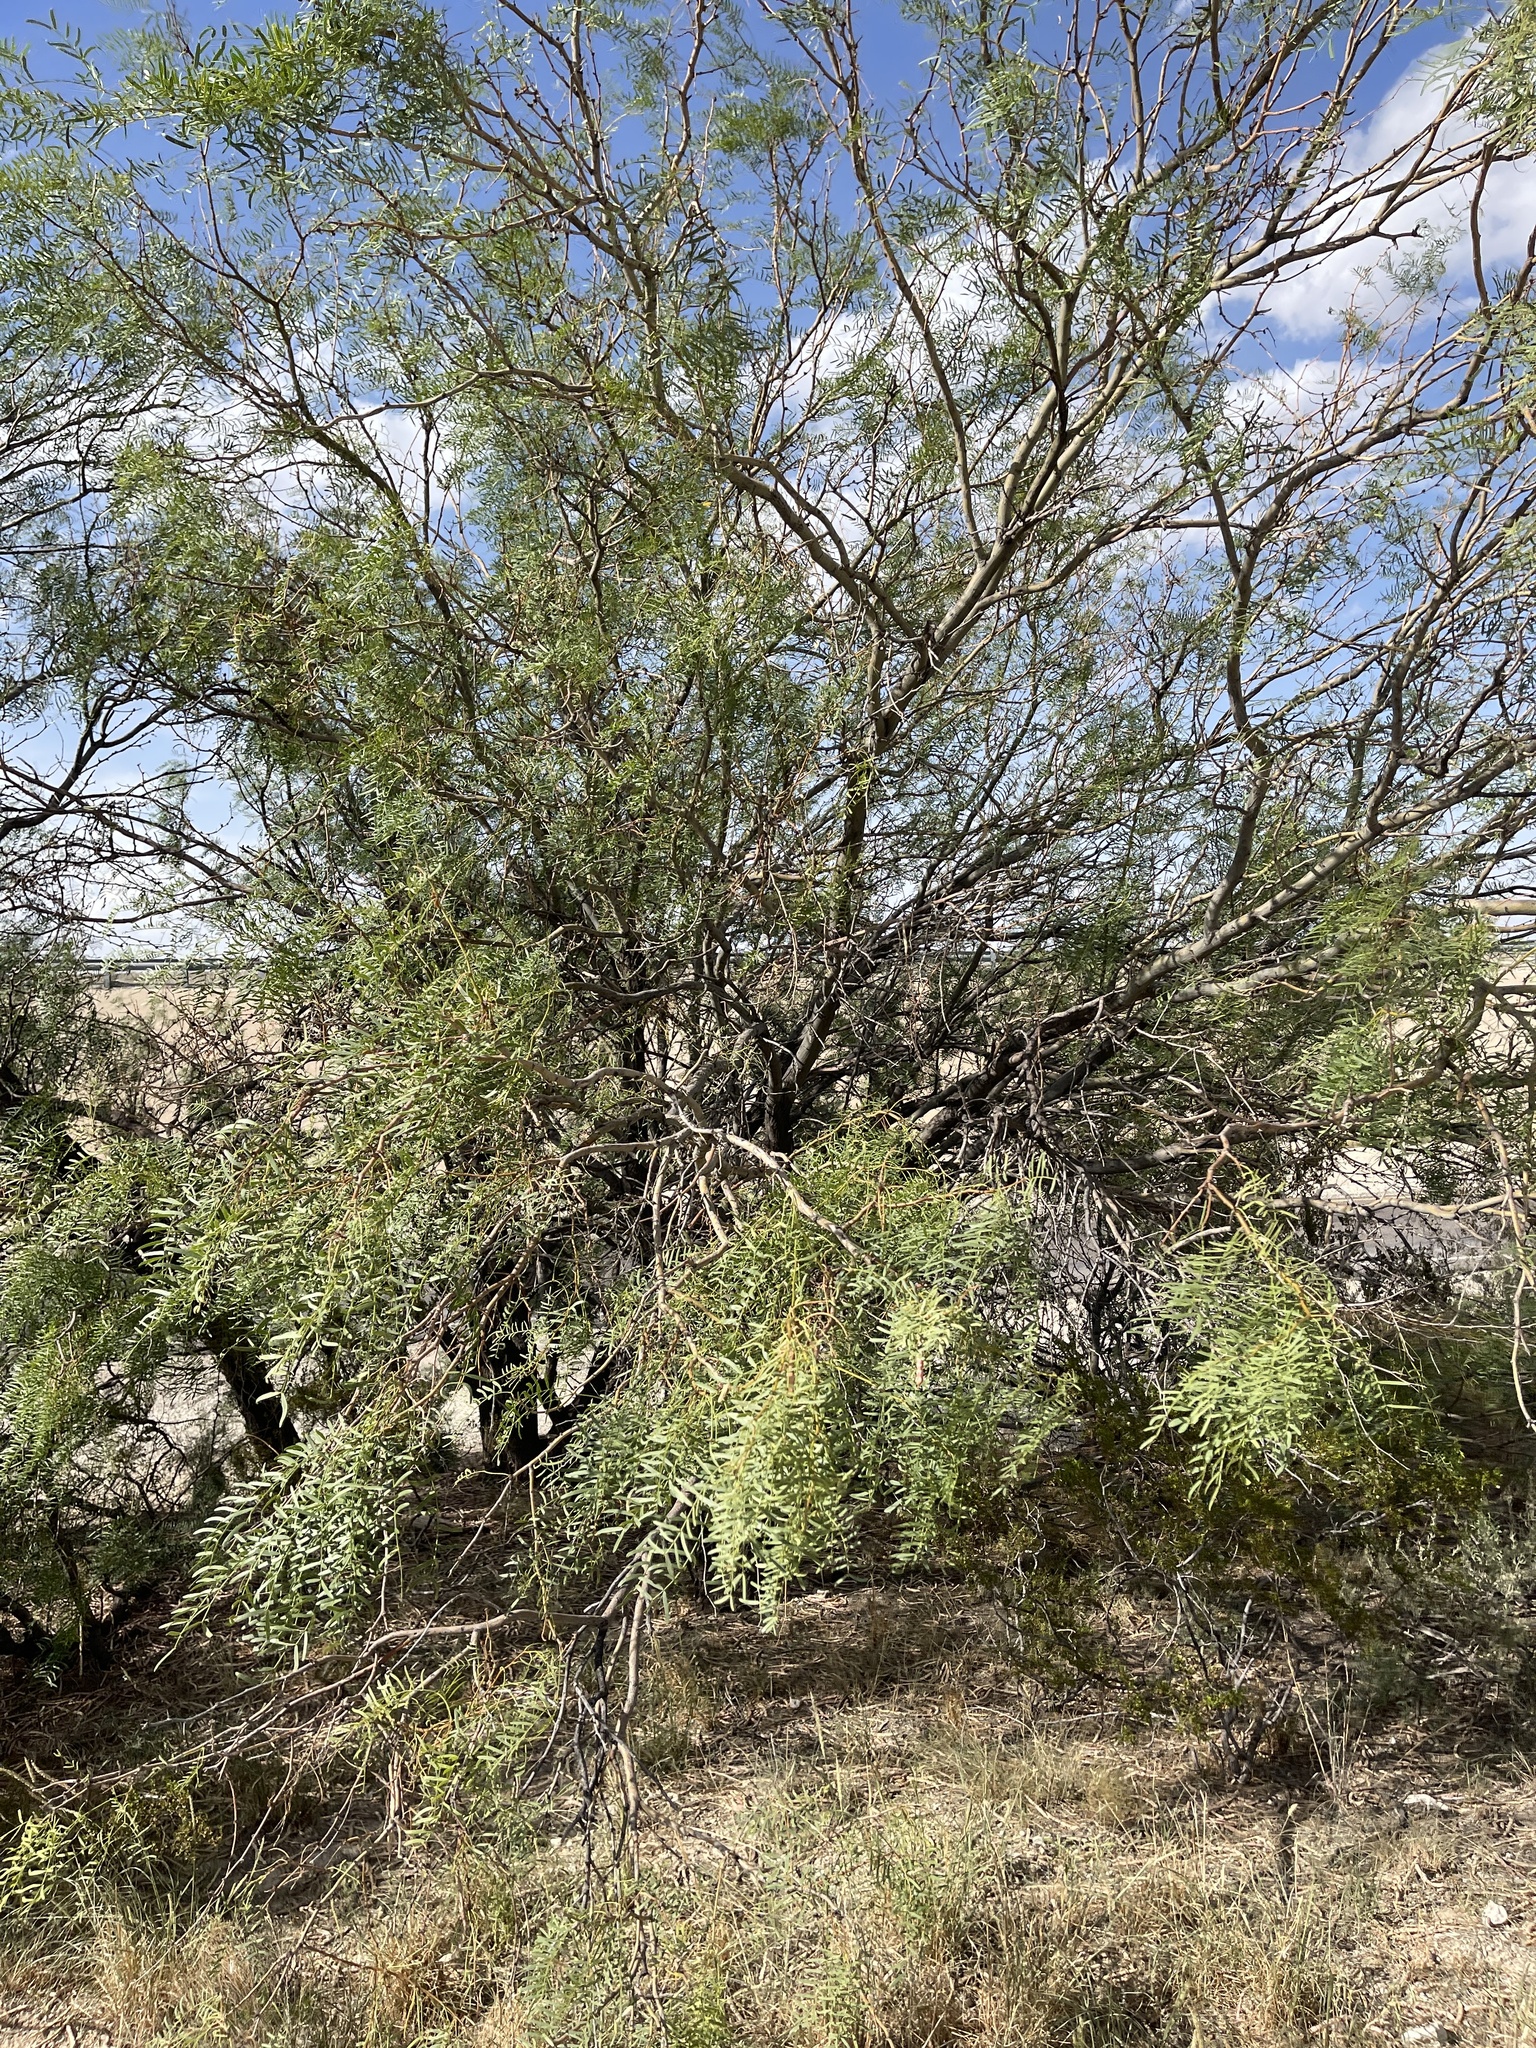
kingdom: Plantae
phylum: Tracheophyta
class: Magnoliopsida
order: Fabales
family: Fabaceae
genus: Prosopis
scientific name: Prosopis glandulosa
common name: Honey mesquite
